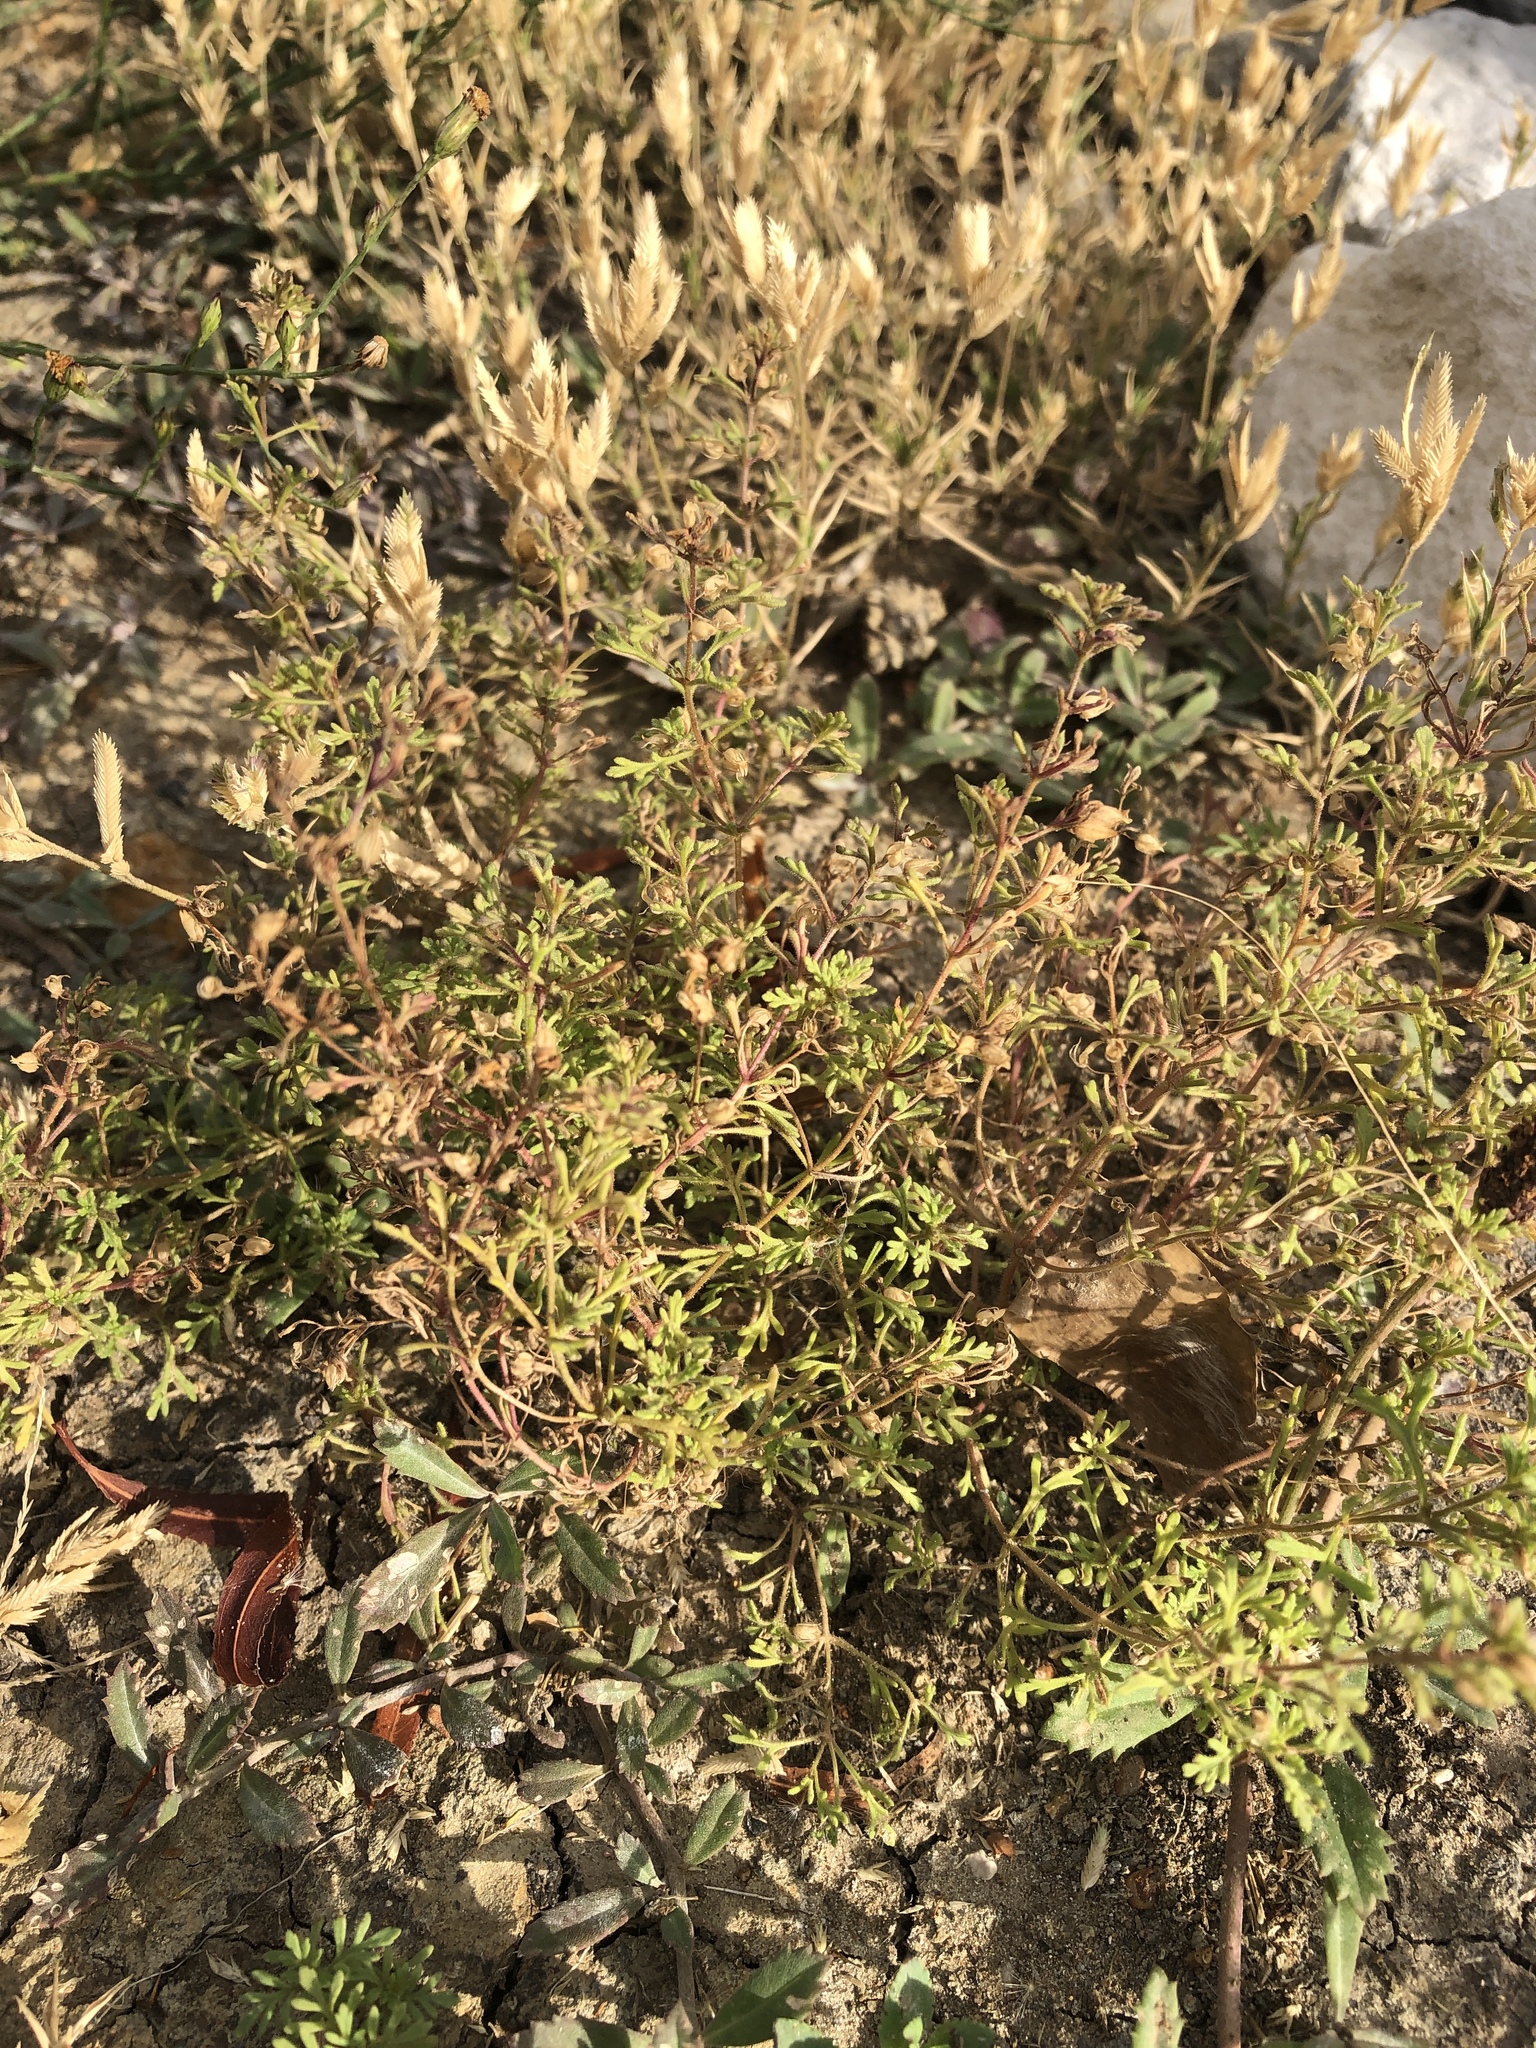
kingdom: Plantae
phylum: Tracheophyta
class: Magnoliopsida
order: Lamiales
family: Plantaginaceae
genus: Leucospora
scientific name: Leucospora multifida
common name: Narrow-leaf paleseed
